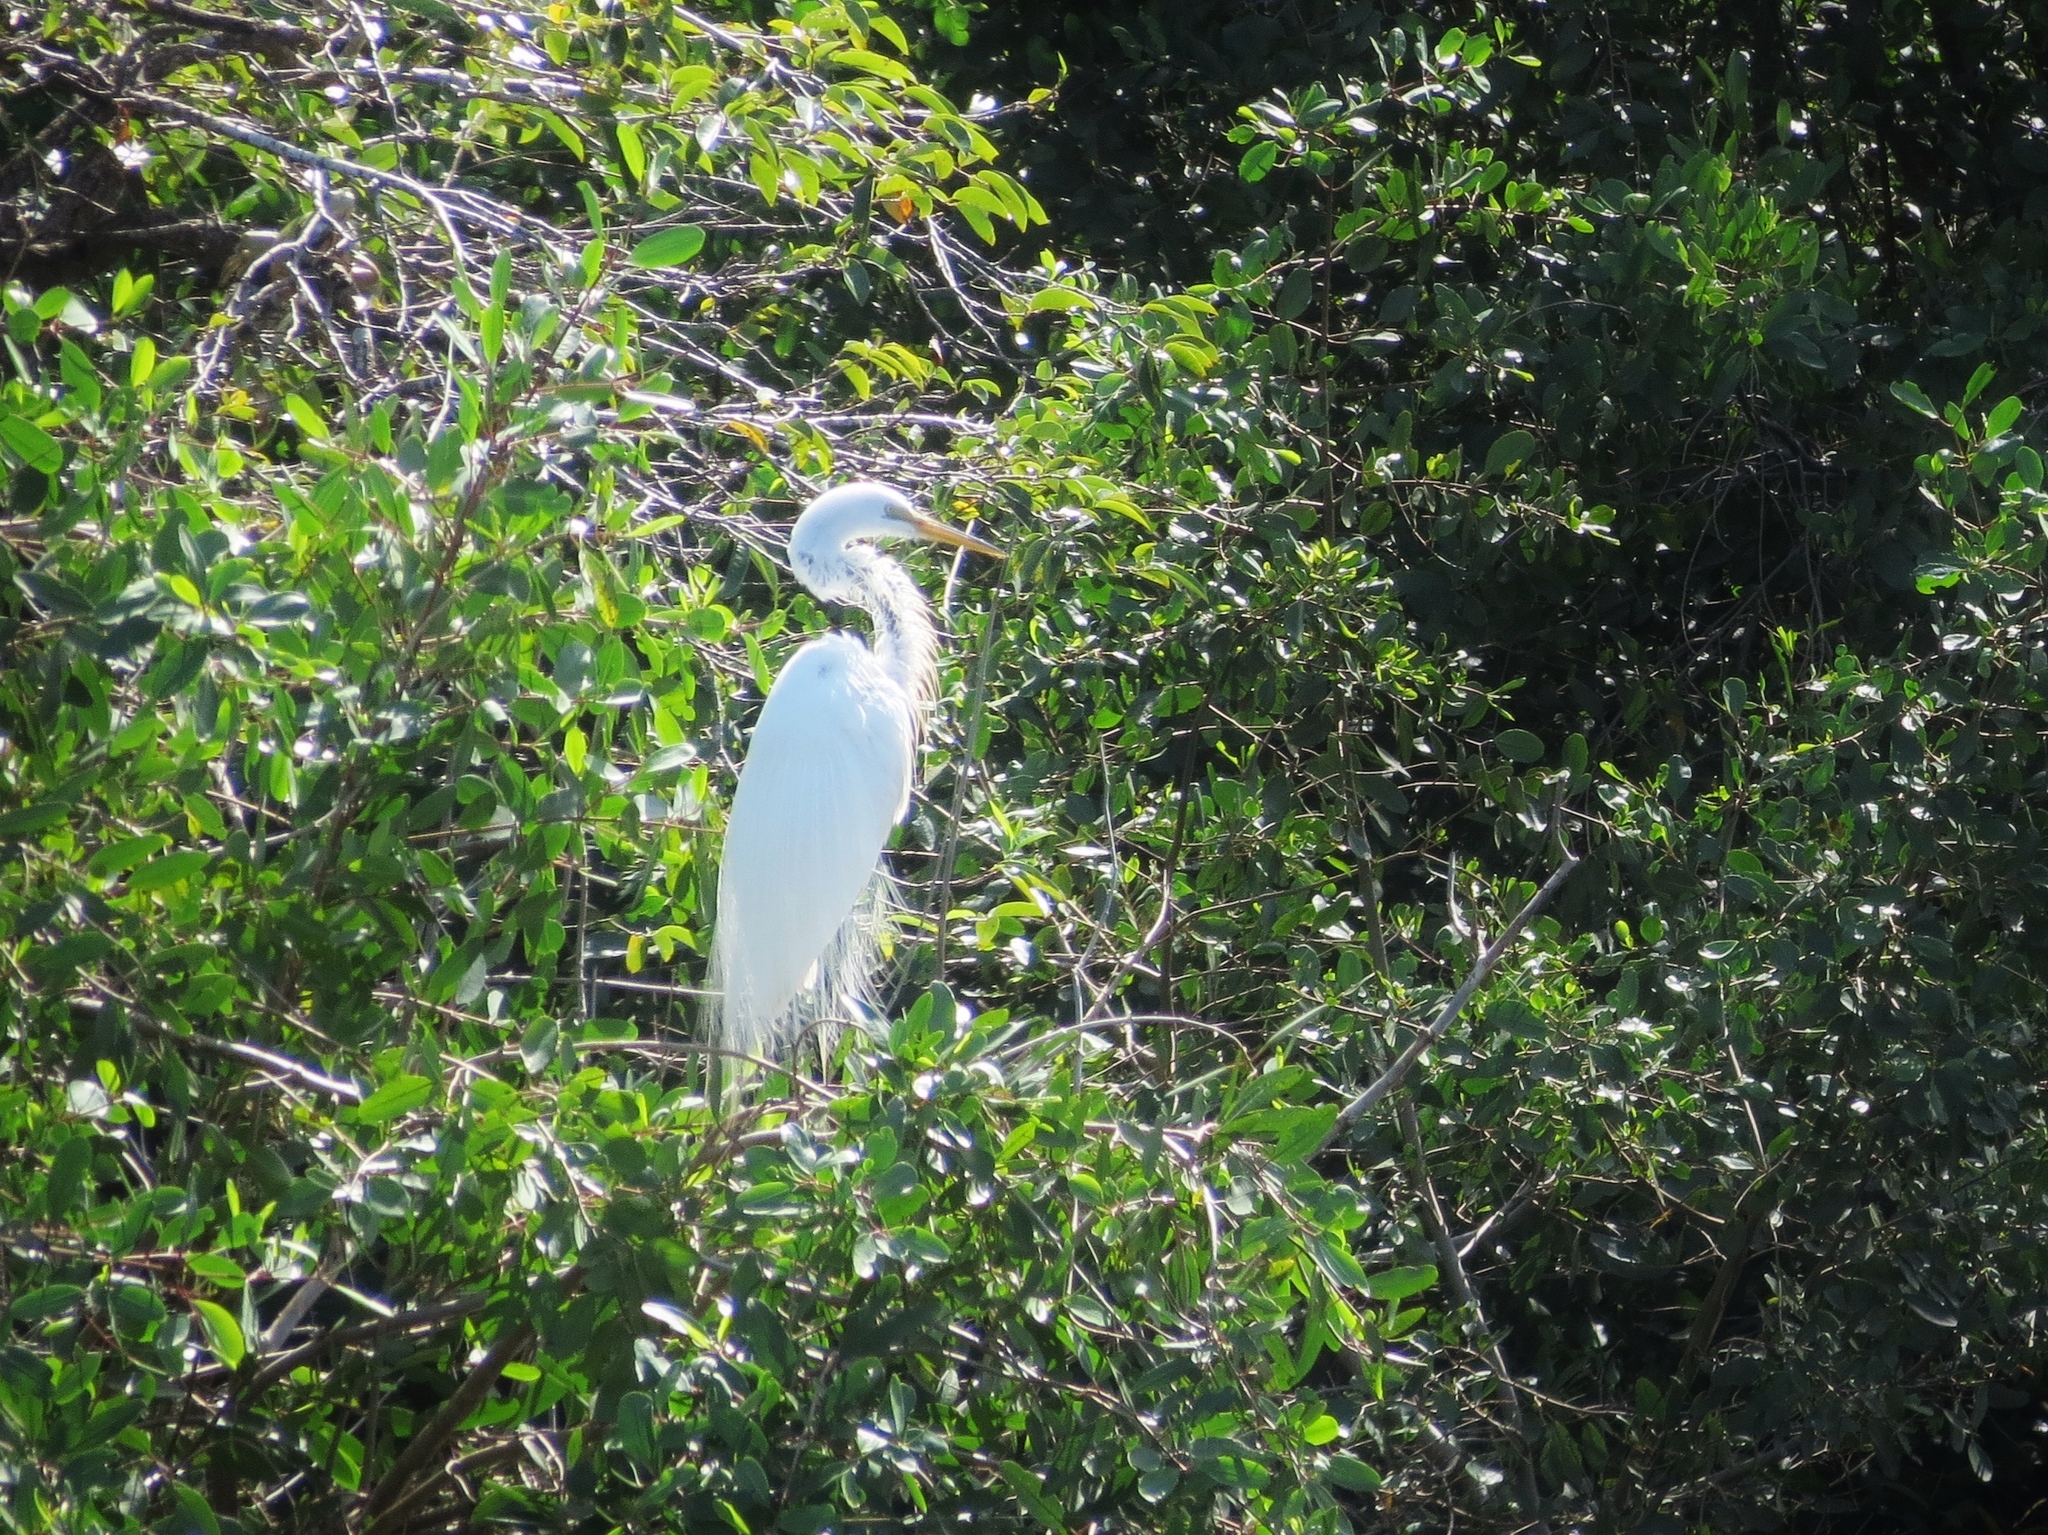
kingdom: Animalia
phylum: Chordata
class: Aves
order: Pelecaniformes
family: Ardeidae
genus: Ardea
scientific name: Ardea alba
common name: Great egret
